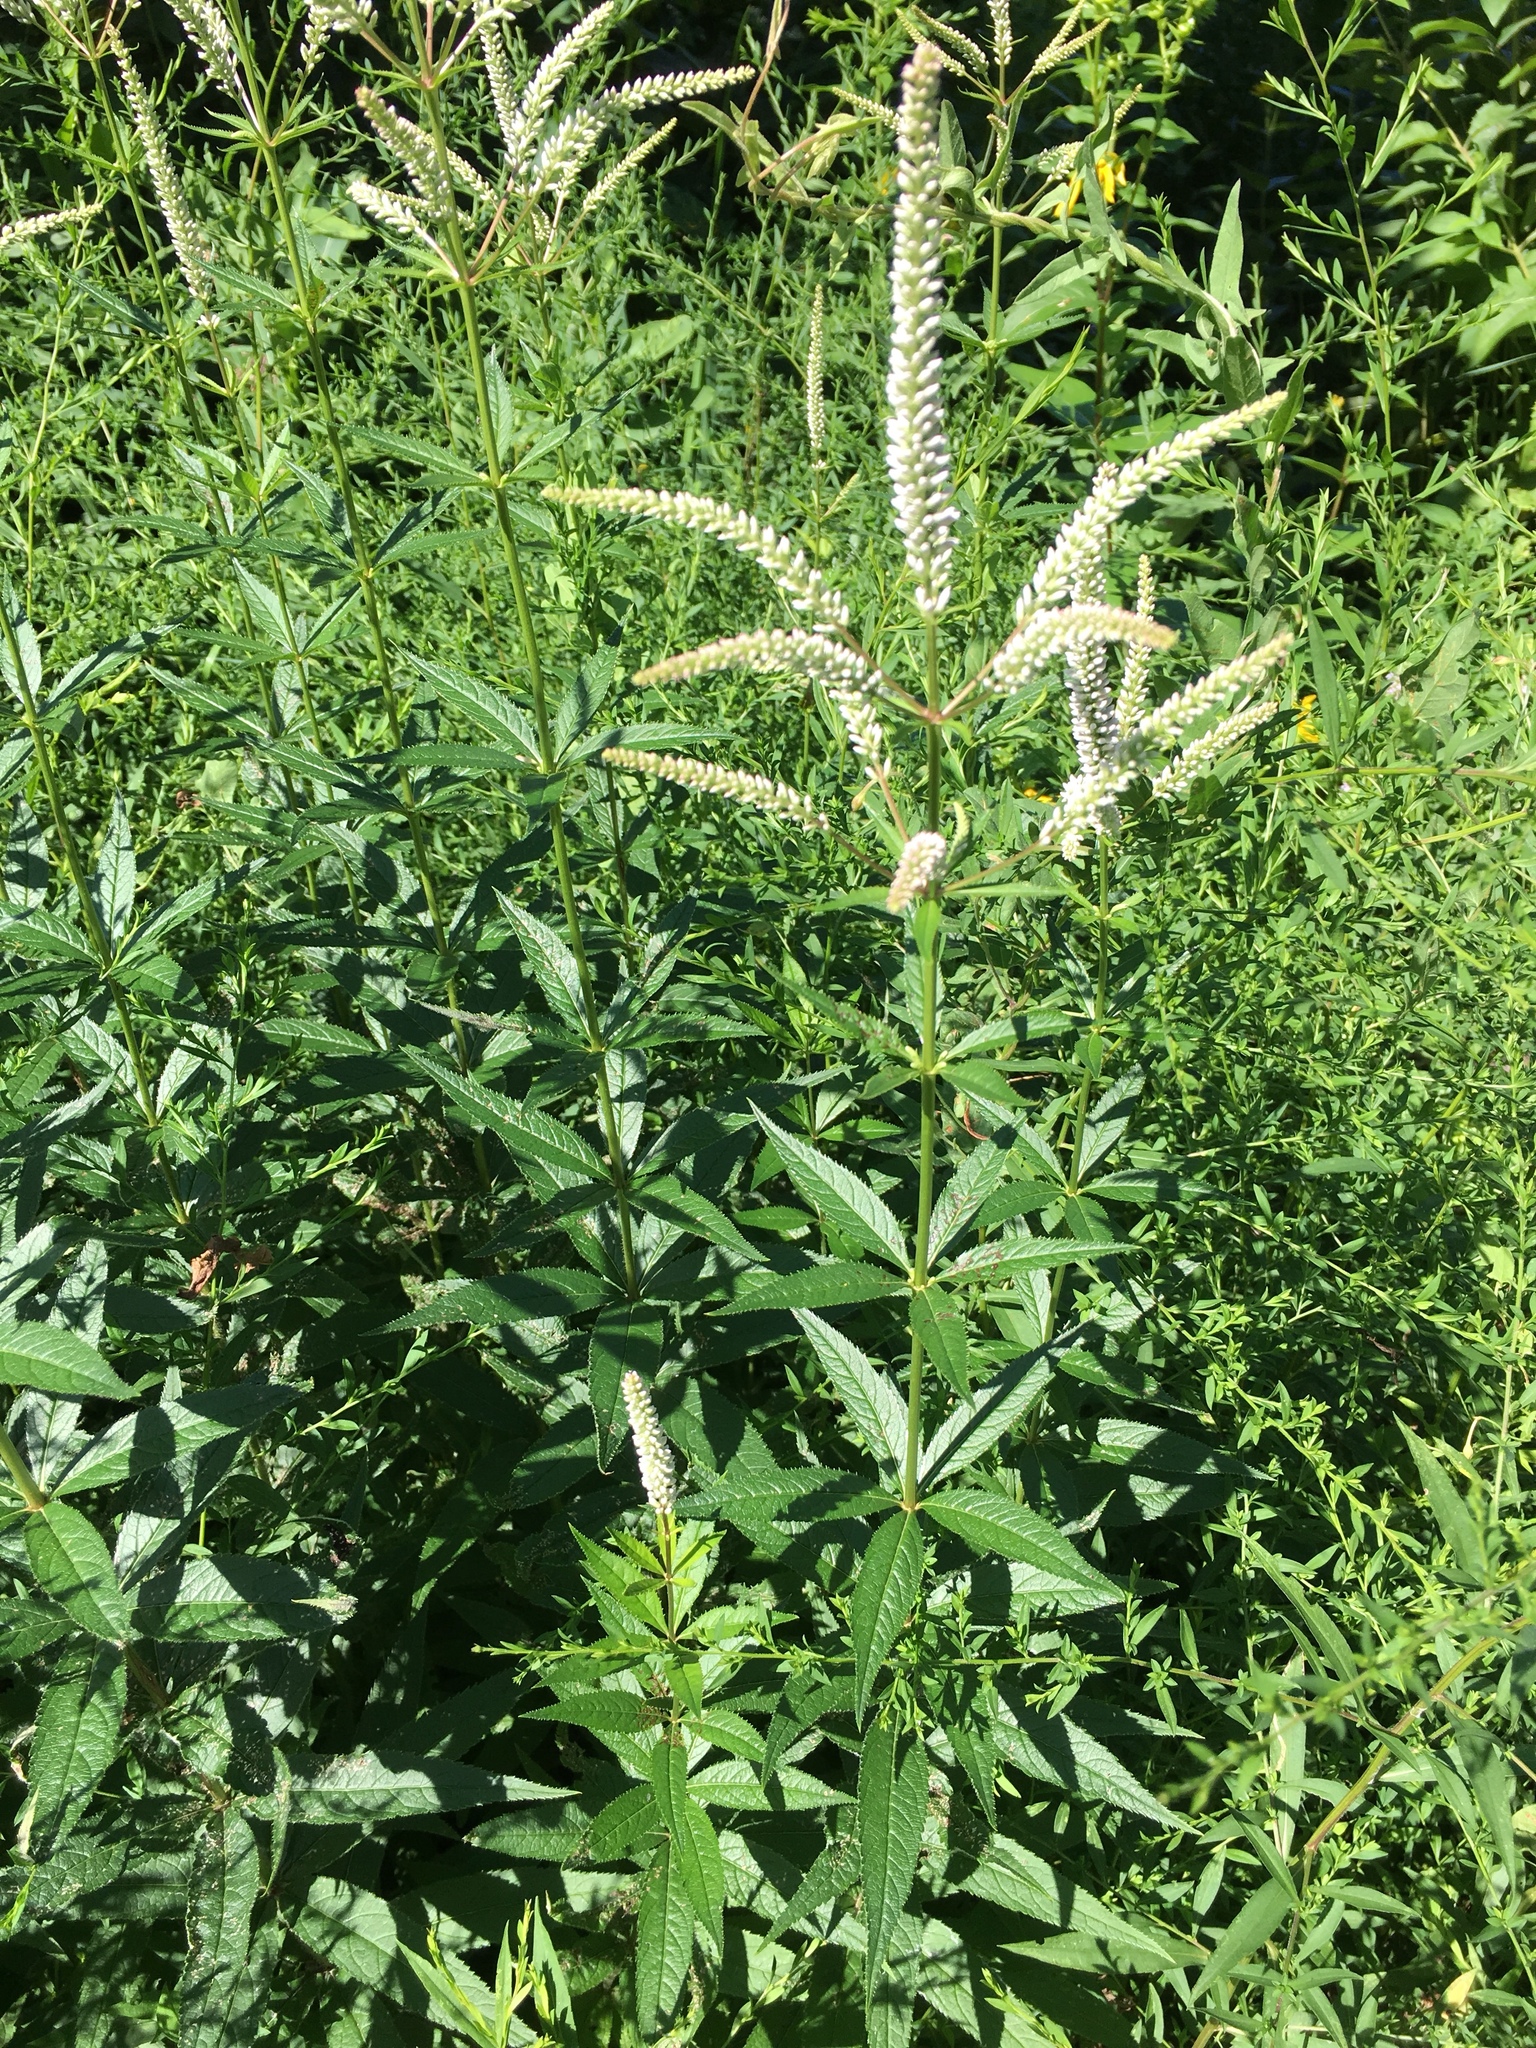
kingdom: Plantae
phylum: Tracheophyta
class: Magnoliopsida
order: Lamiales
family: Plantaginaceae
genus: Veronicastrum
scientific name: Veronicastrum virginicum
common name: Blackroot
